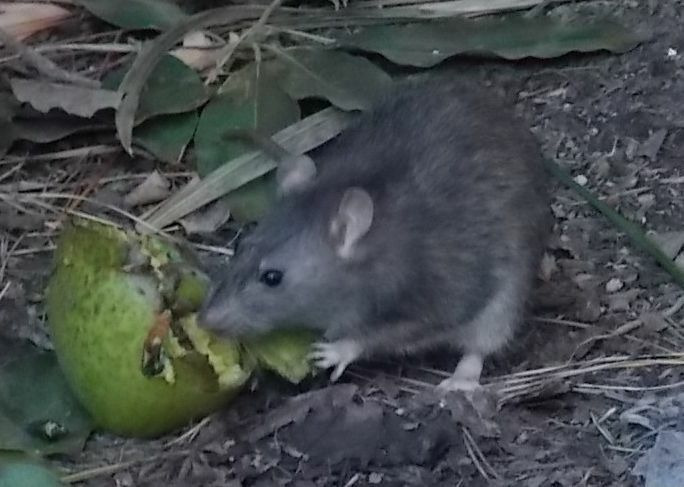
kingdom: Animalia
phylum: Chordata
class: Mammalia
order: Rodentia
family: Muridae
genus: Rattus
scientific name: Rattus rattus
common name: Black rat
